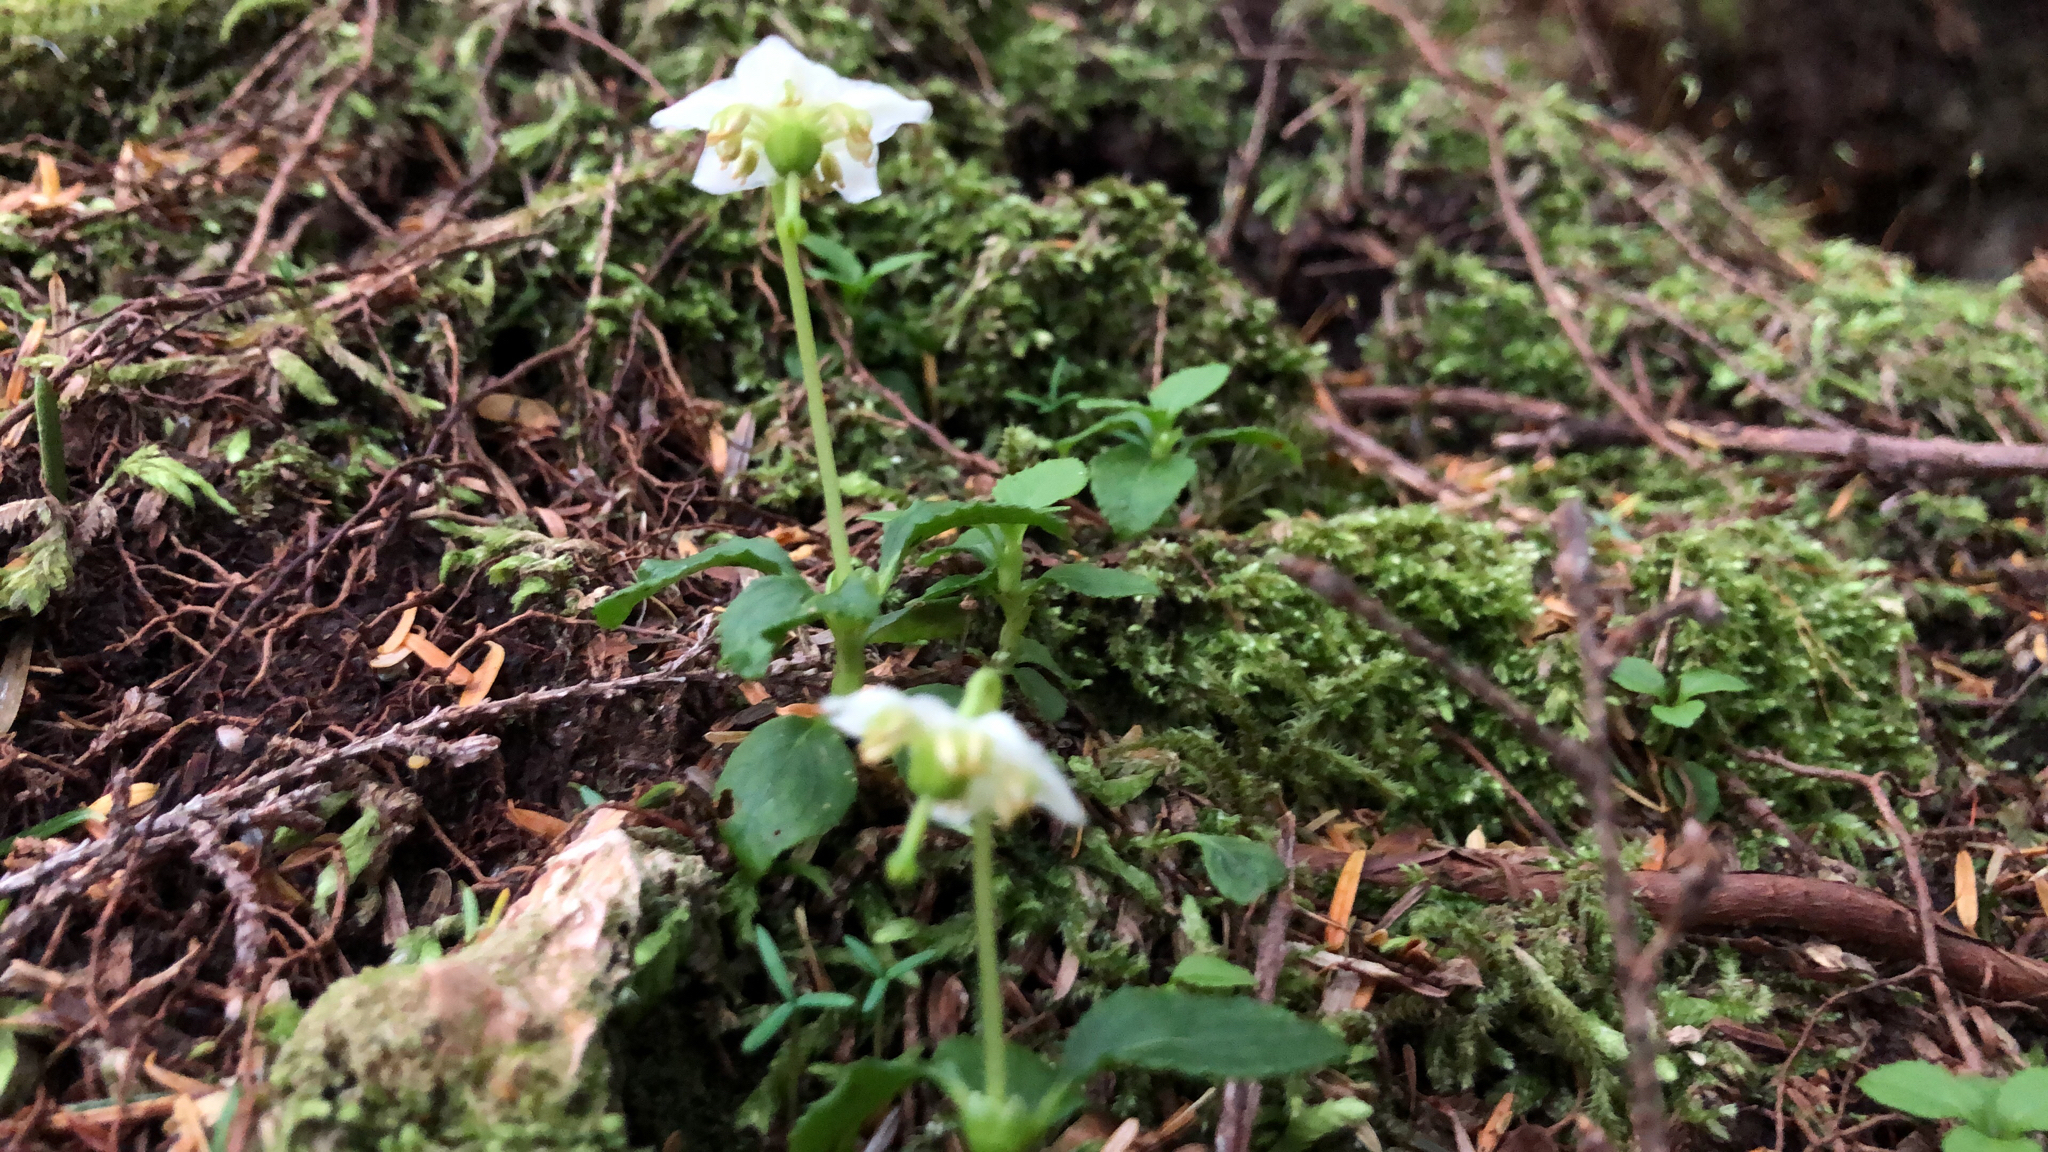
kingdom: Plantae
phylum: Tracheophyta
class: Magnoliopsida
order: Ericales
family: Ericaceae
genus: Moneses
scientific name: Moneses uniflora
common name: One-flowered wintergreen
